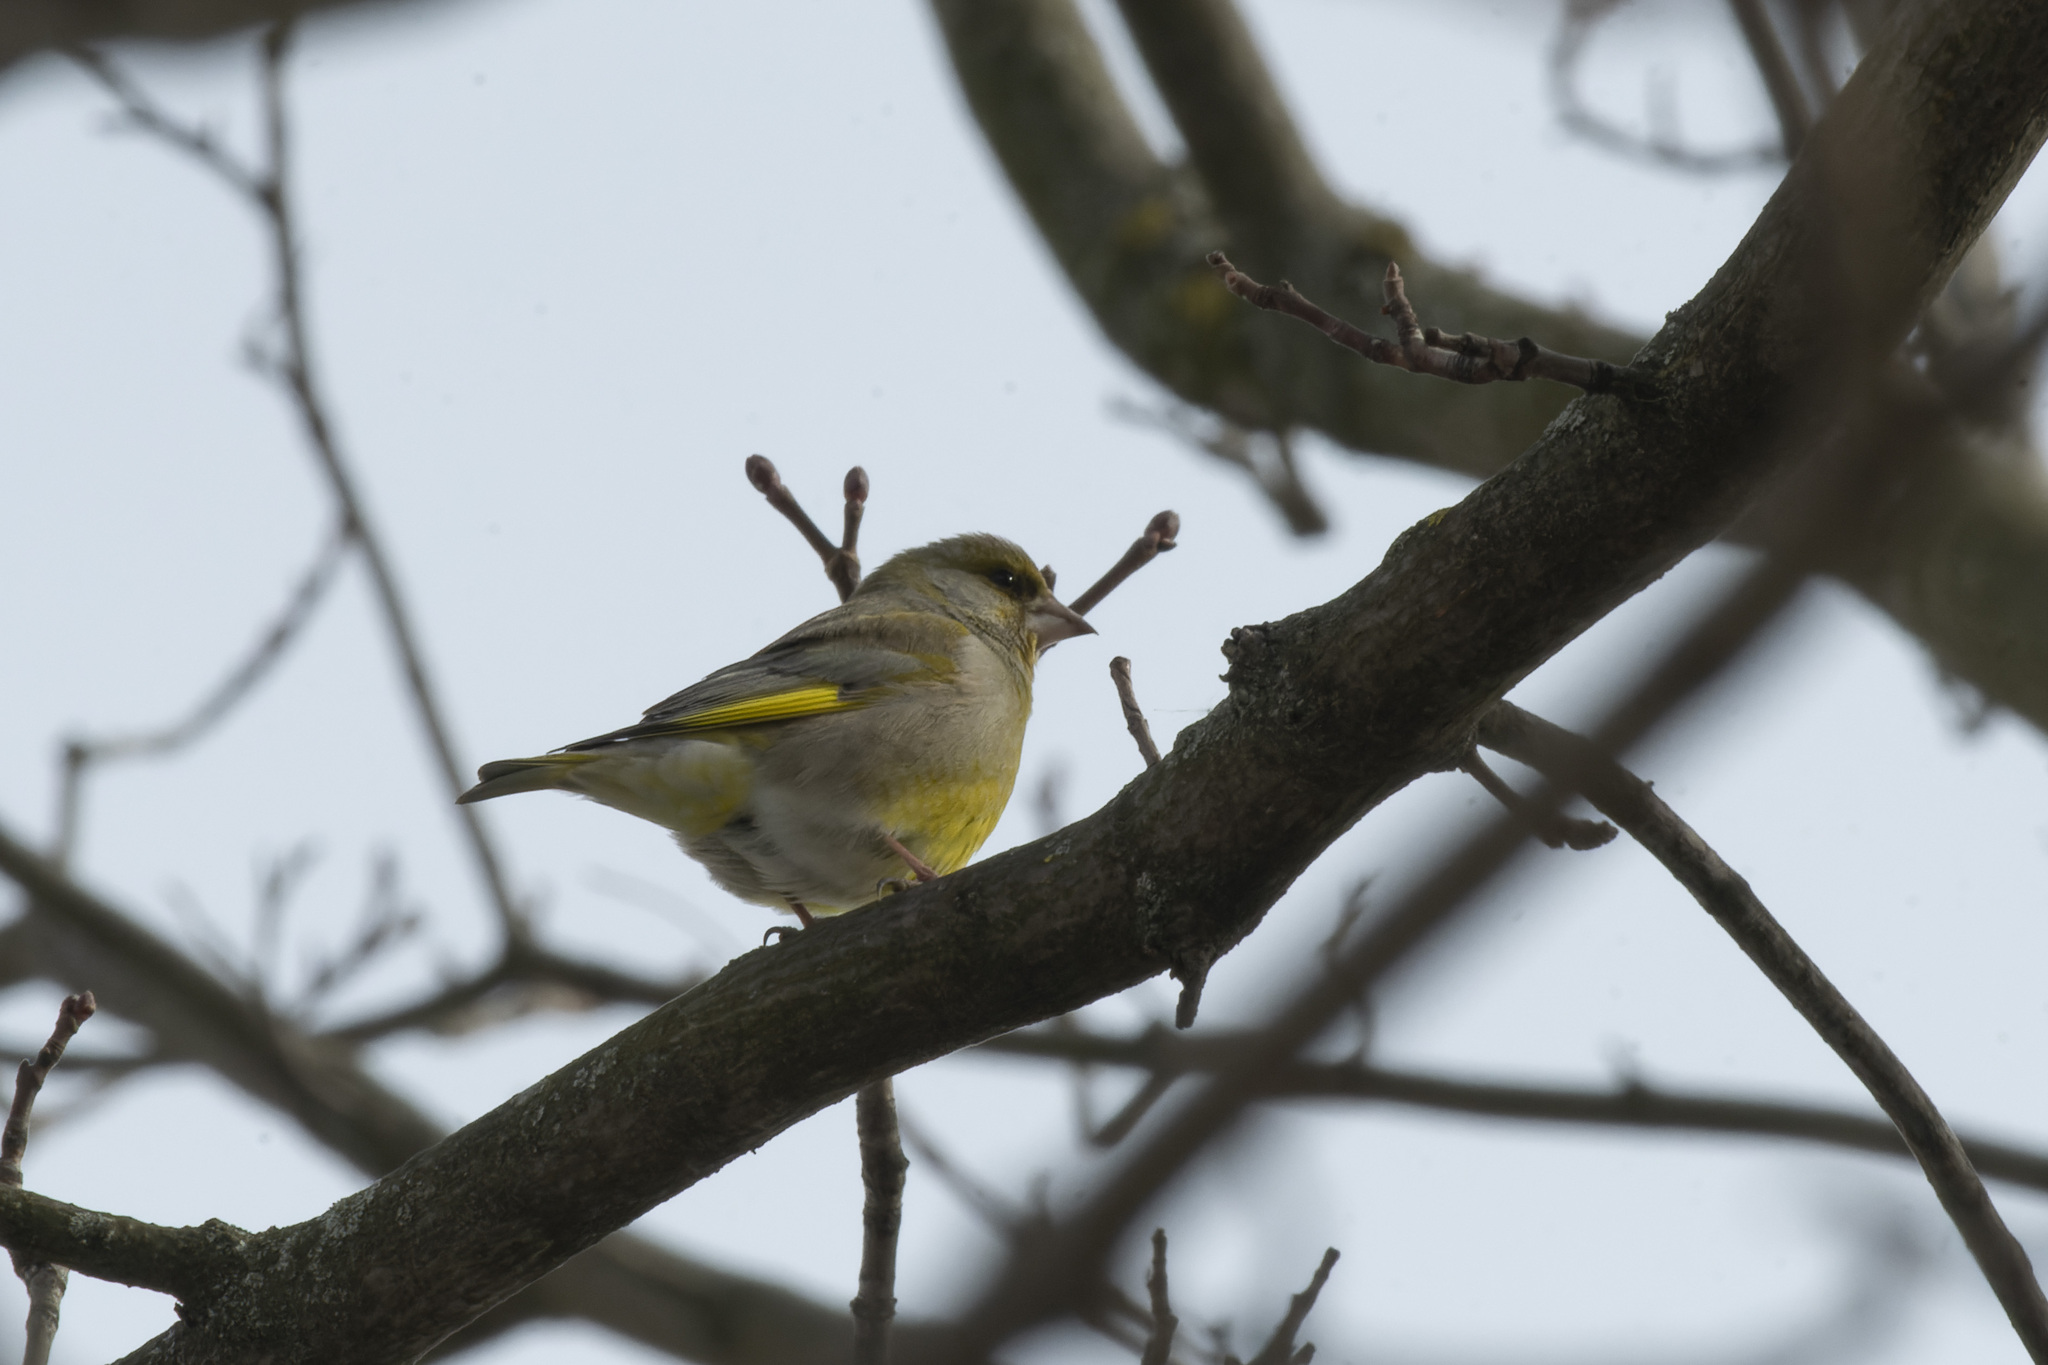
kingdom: Plantae
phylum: Tracheophyta
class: Liliopsida
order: Poales
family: Poaceae
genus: Chloris
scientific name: Chloris chloris
